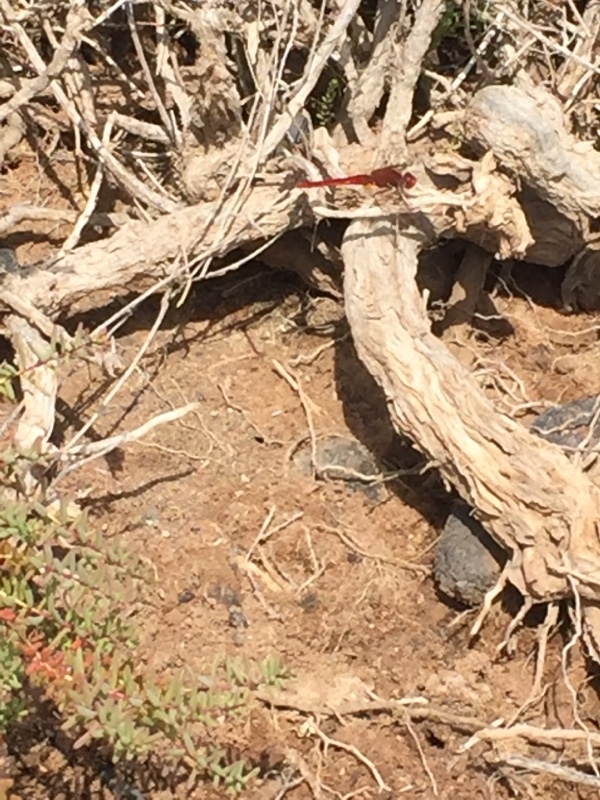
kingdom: Animalia
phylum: Arthropoda
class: Insecta
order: Odonata
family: Libellulidae
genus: Crocothemis
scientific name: Crocothemis erythraea
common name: Scarlet dragonfly
